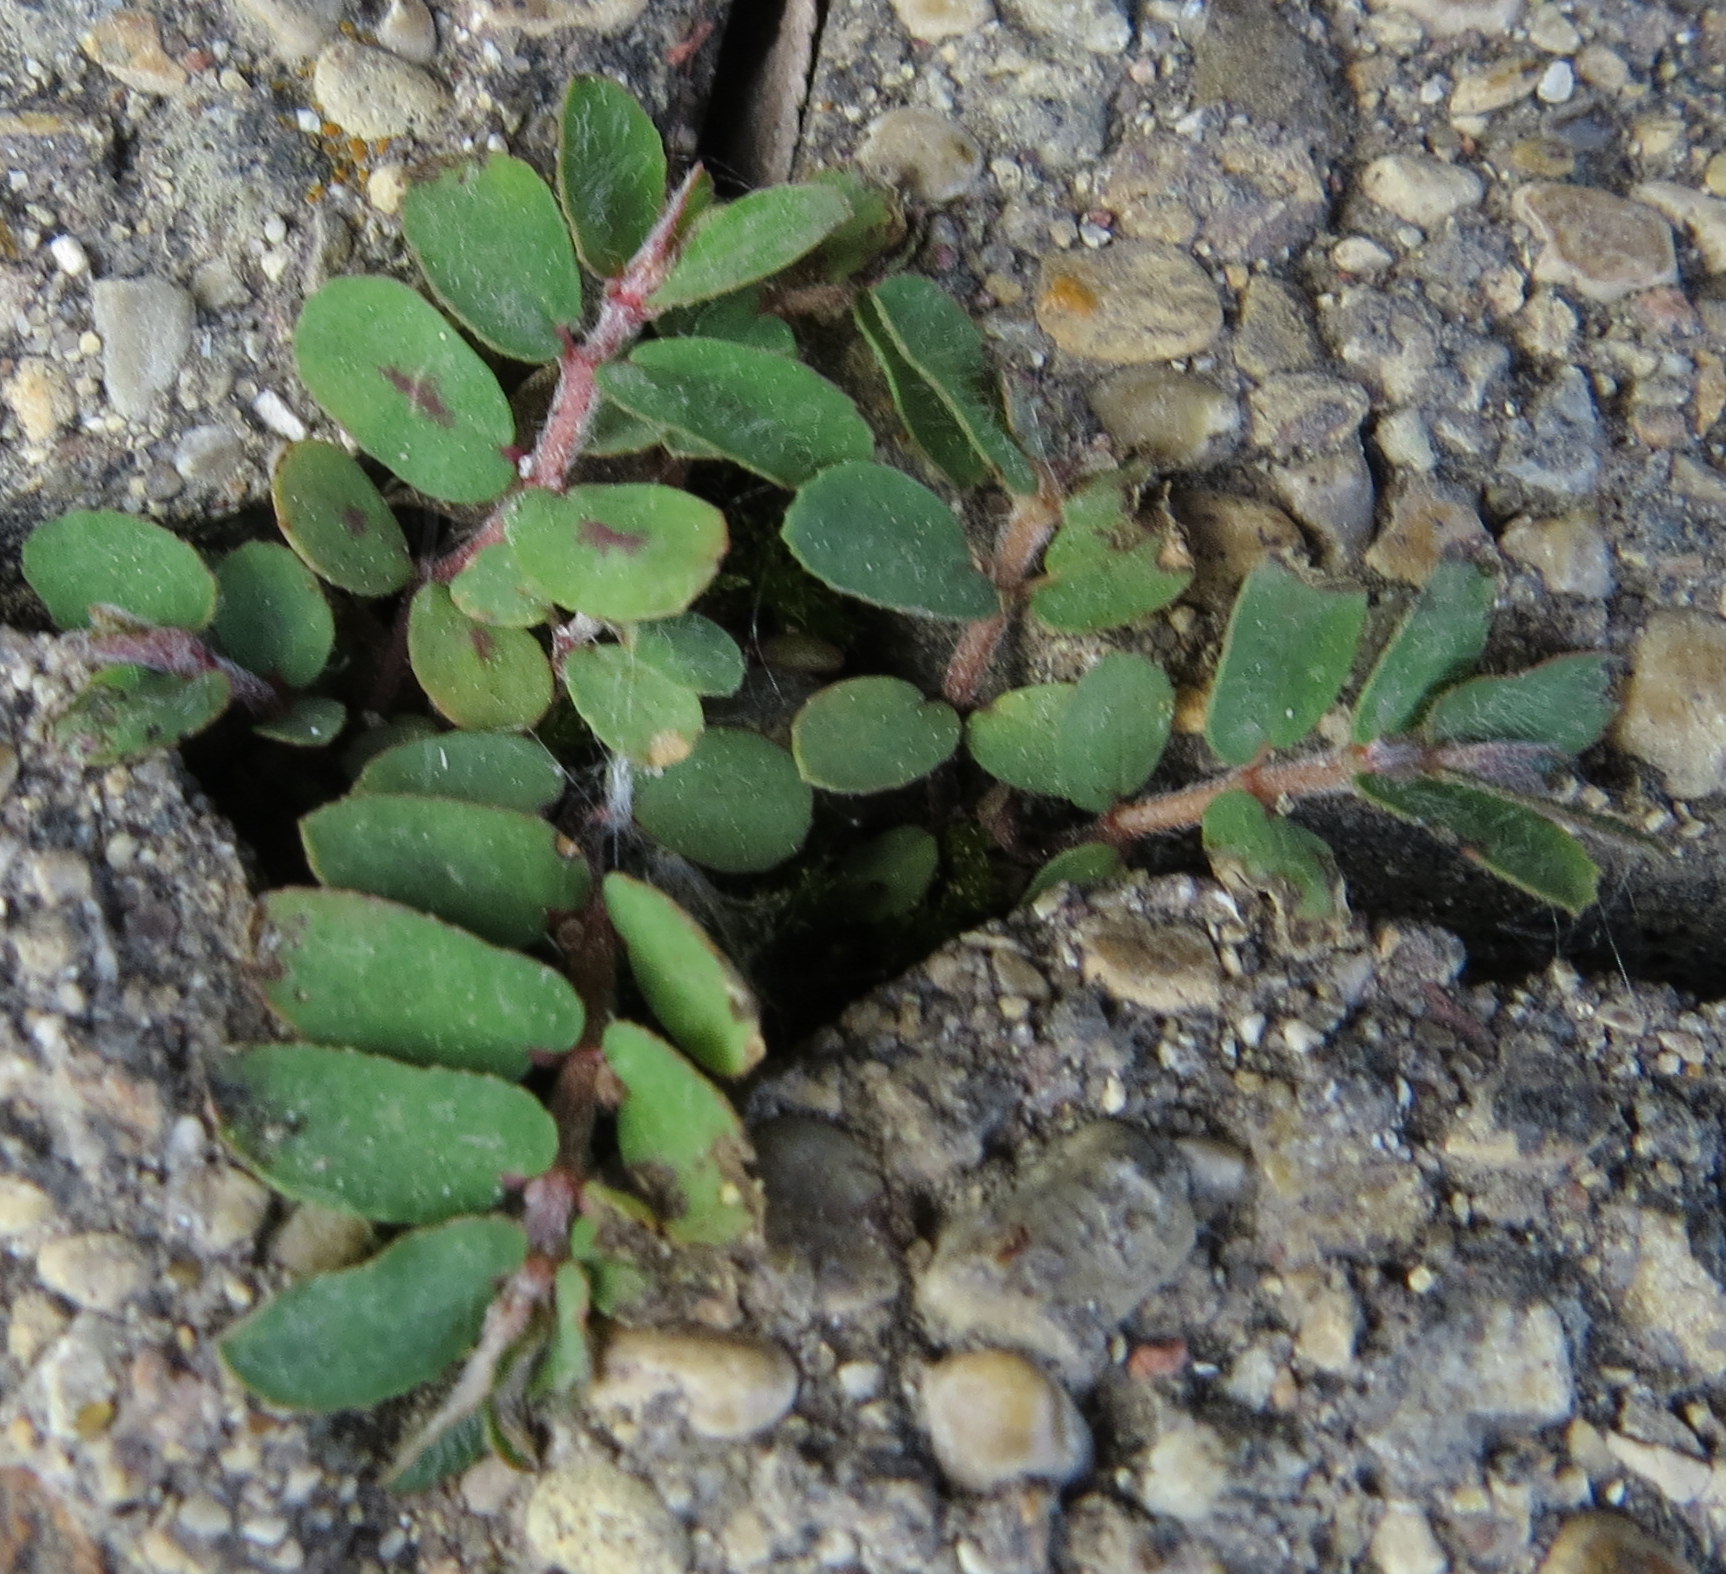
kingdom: Plantae
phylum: Tracheophyta
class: Magnoliopsida
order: Malpighiales
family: Euphorbiaceae
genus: Euphorbia
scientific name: Euphorbia maculata
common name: Spotted spurge
